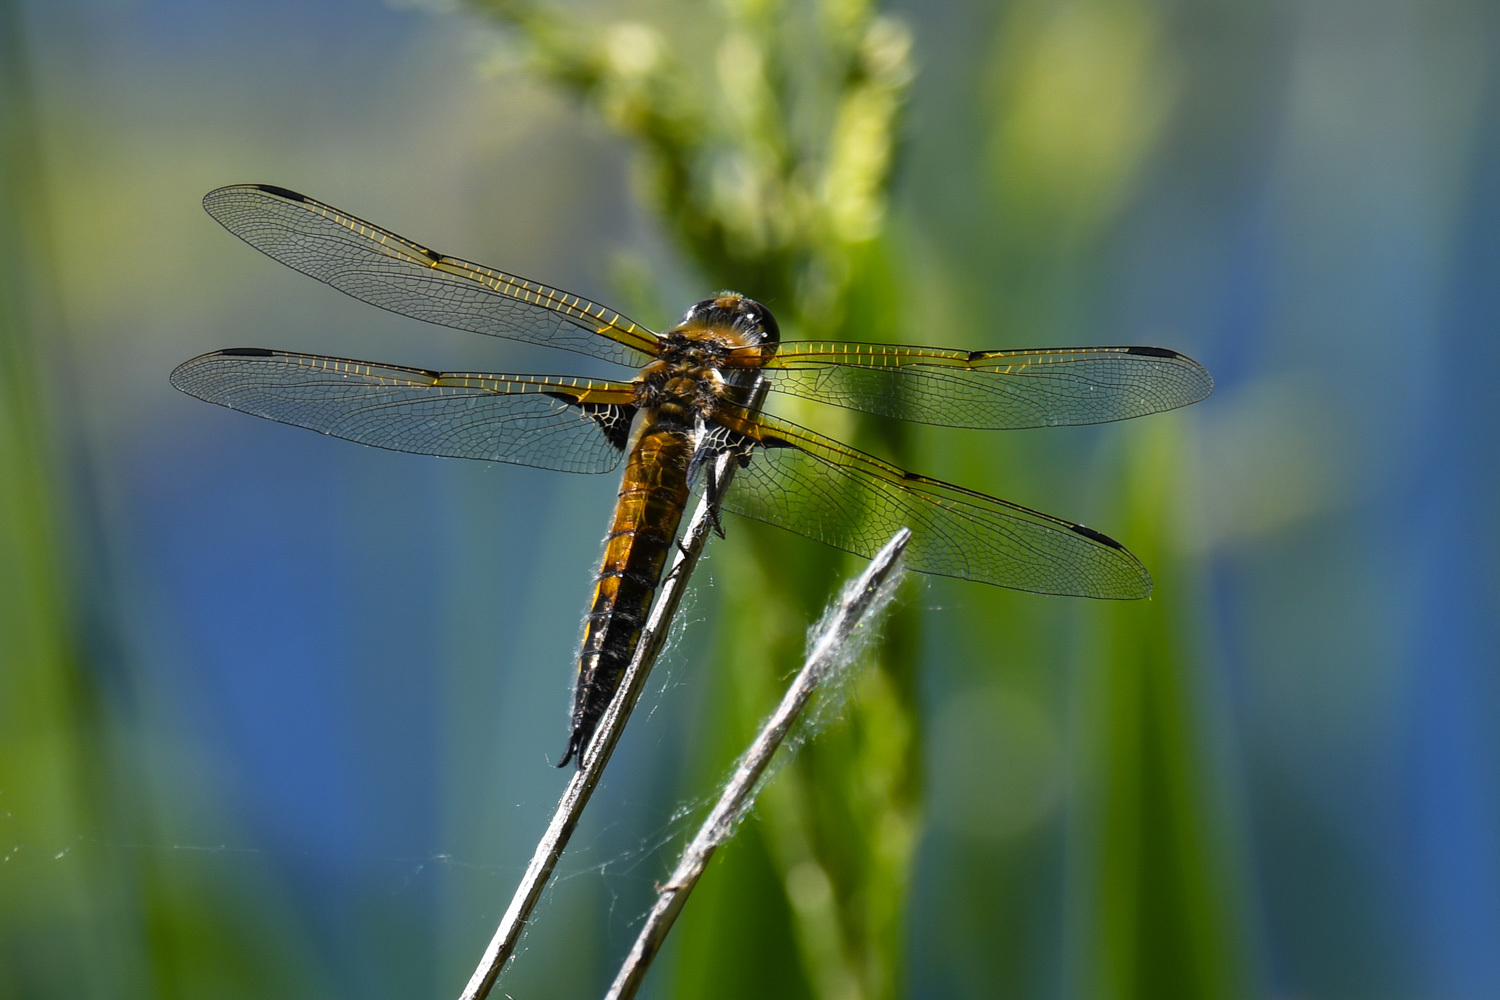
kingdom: Animalia
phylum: Arthropoda
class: Insecta
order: Odonata
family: Libellulidae
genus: Libellula
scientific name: Libellula quadrimaculata
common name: Four-spotted chaser
